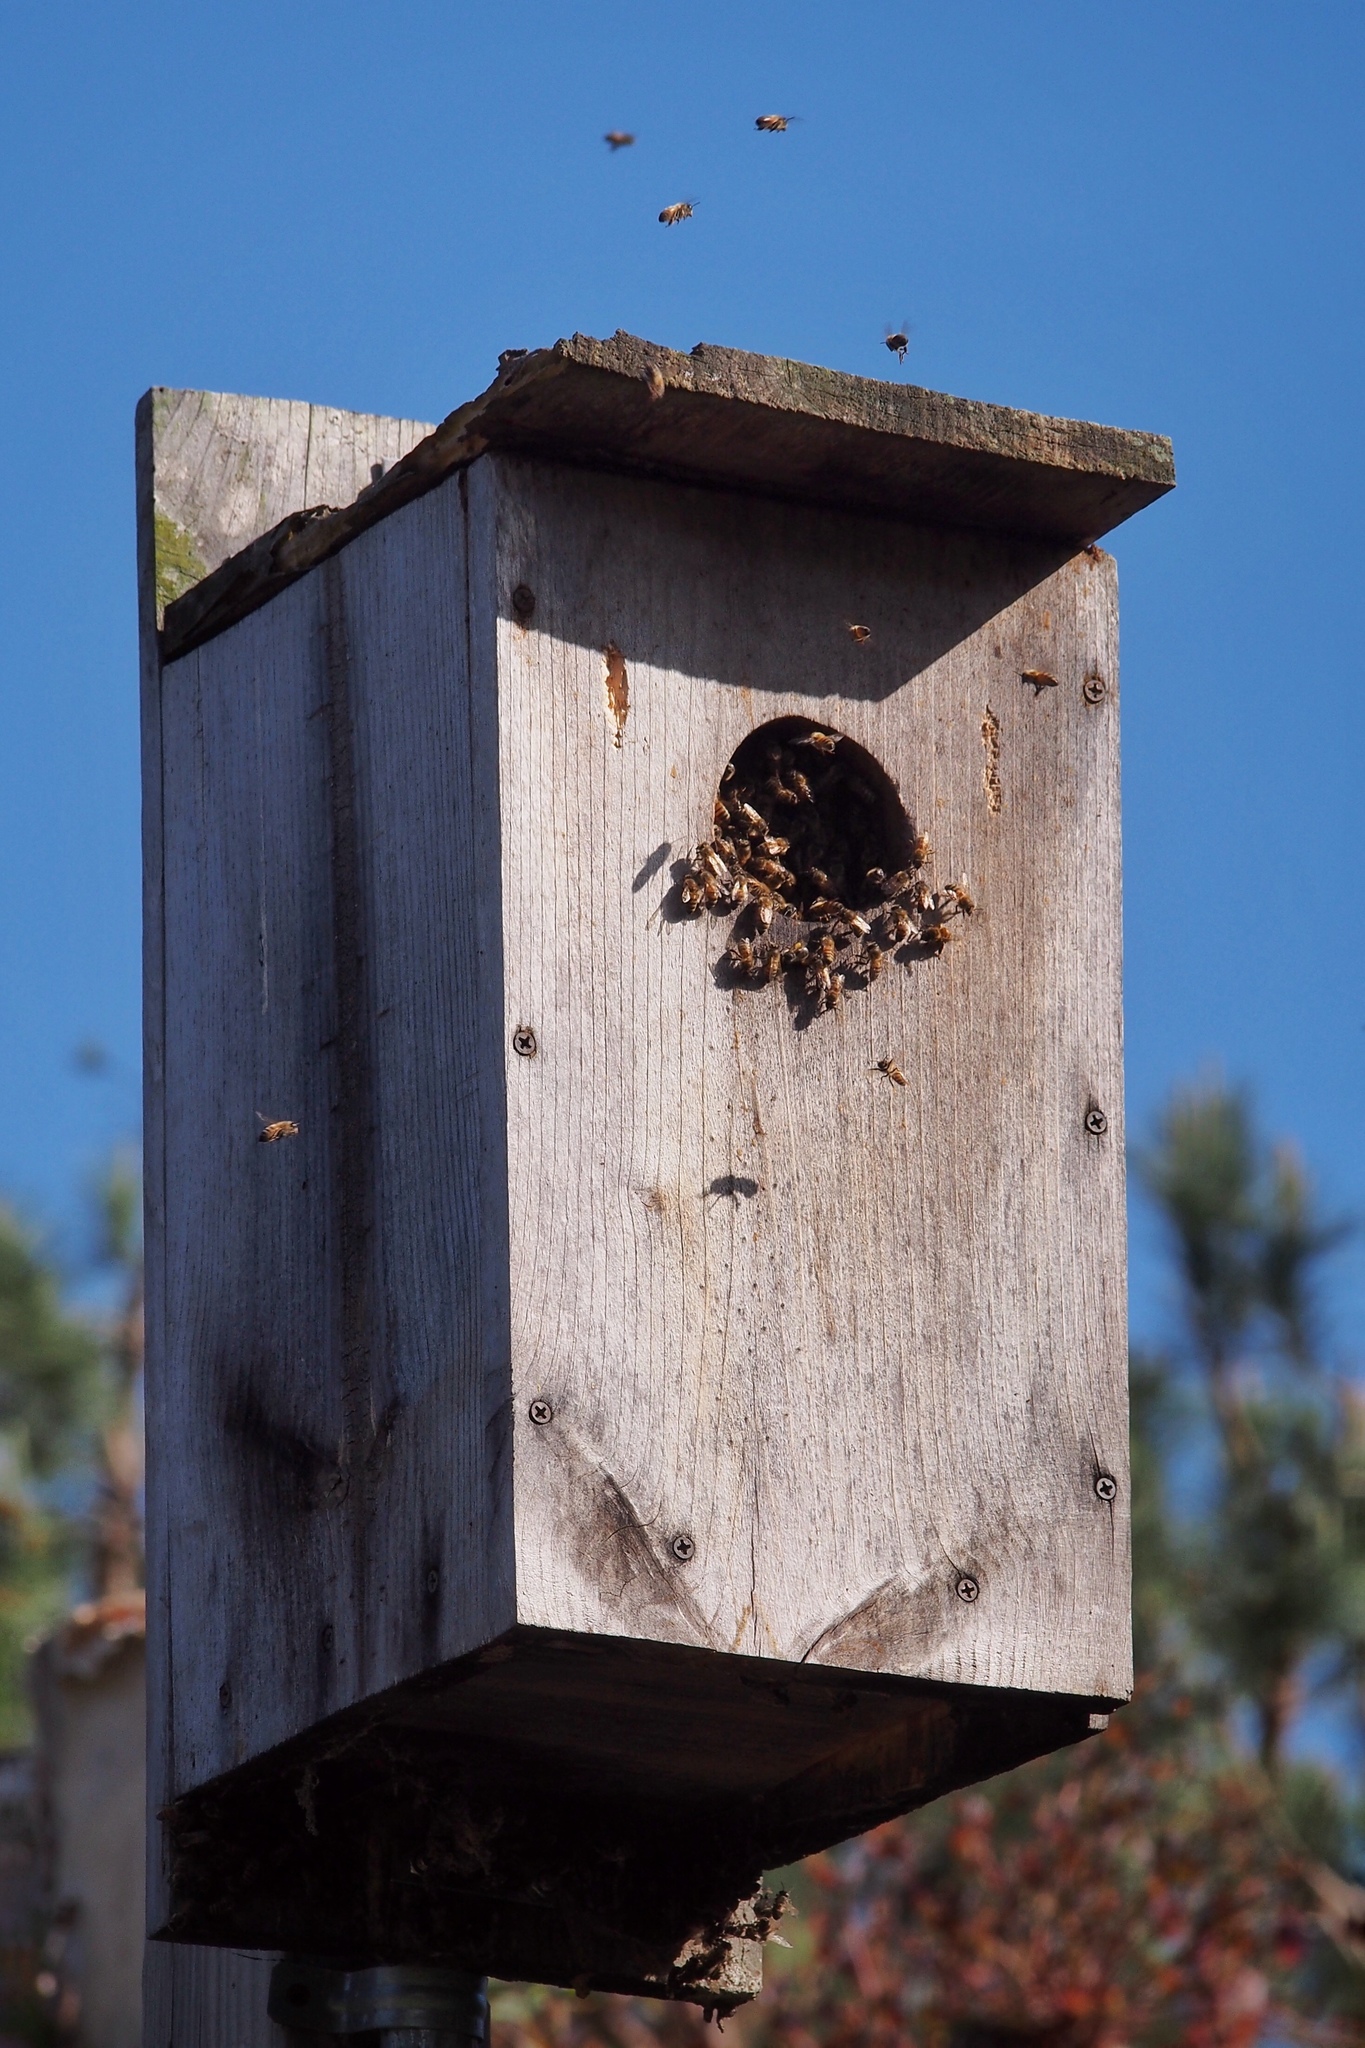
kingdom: Animalia
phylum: Arthropoda
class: Insecta
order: Hymenoptera
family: Apidae
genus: Apis
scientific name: Apis mellifera
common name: Honey bee
